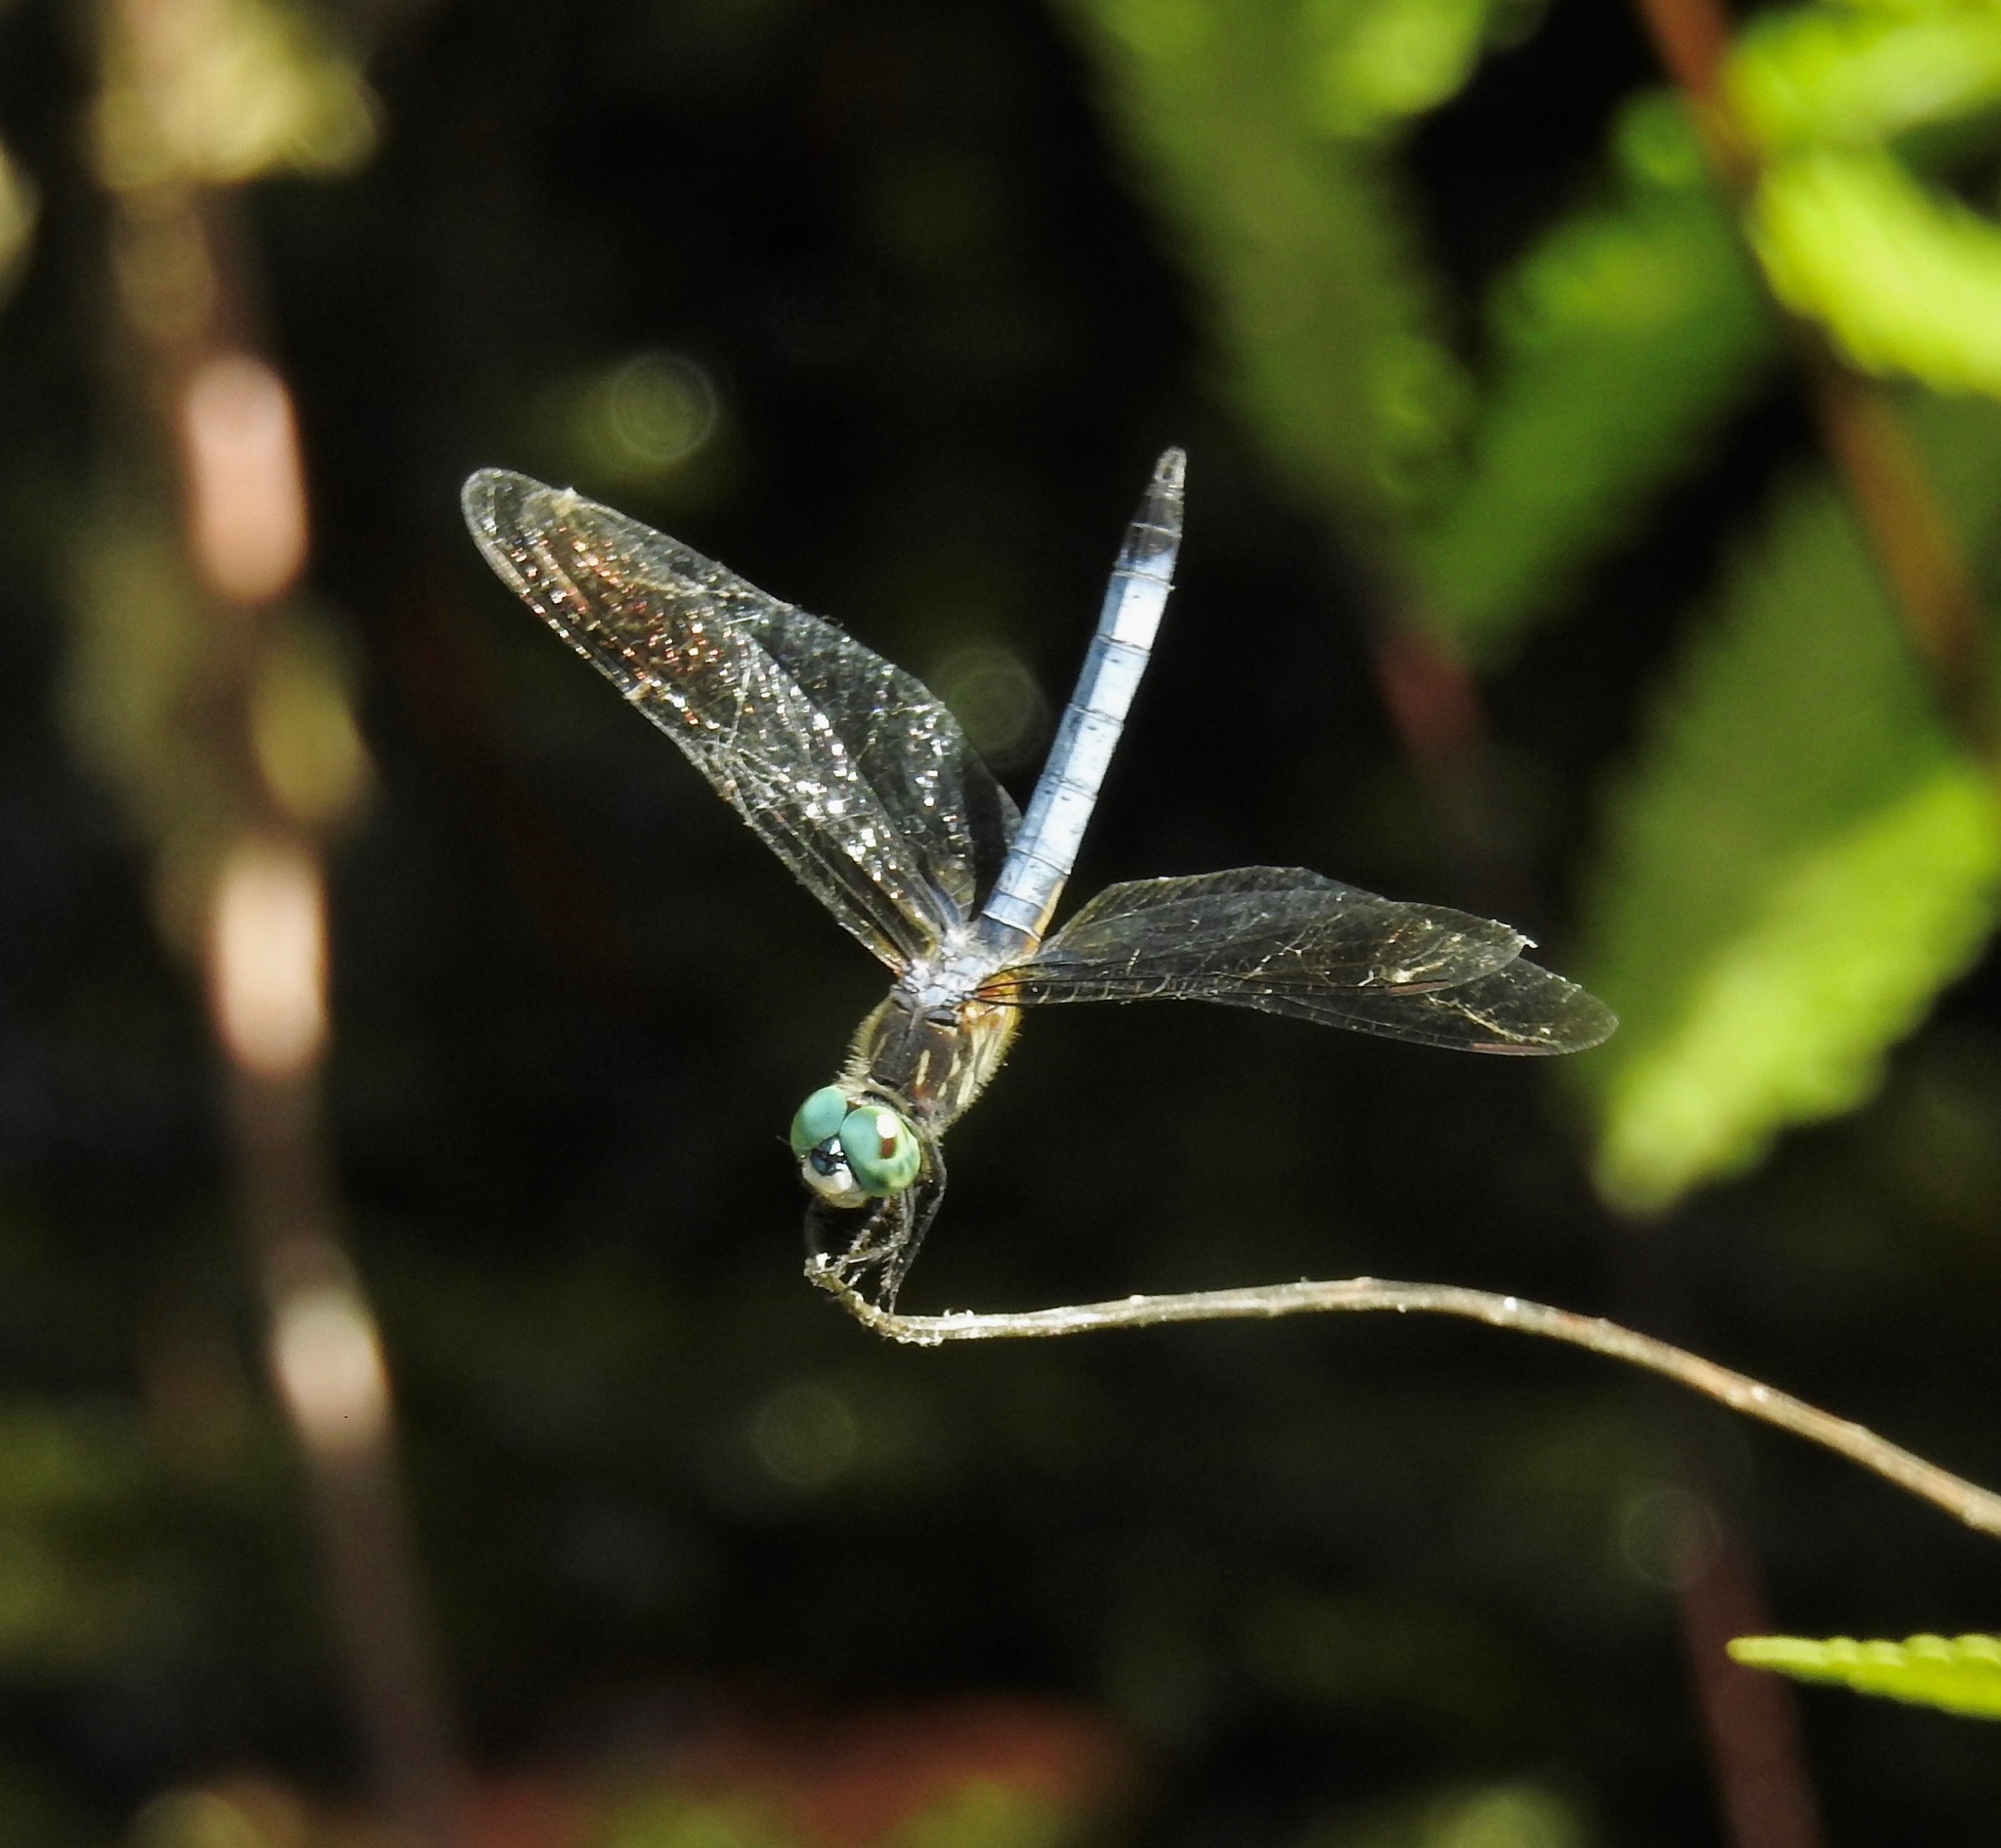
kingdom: Animalia
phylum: Arthropoda
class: Insecta
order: Odonata
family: Libellulidae
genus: Pachydiplax
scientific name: Pachydiplax longipennis
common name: Blue dasher
